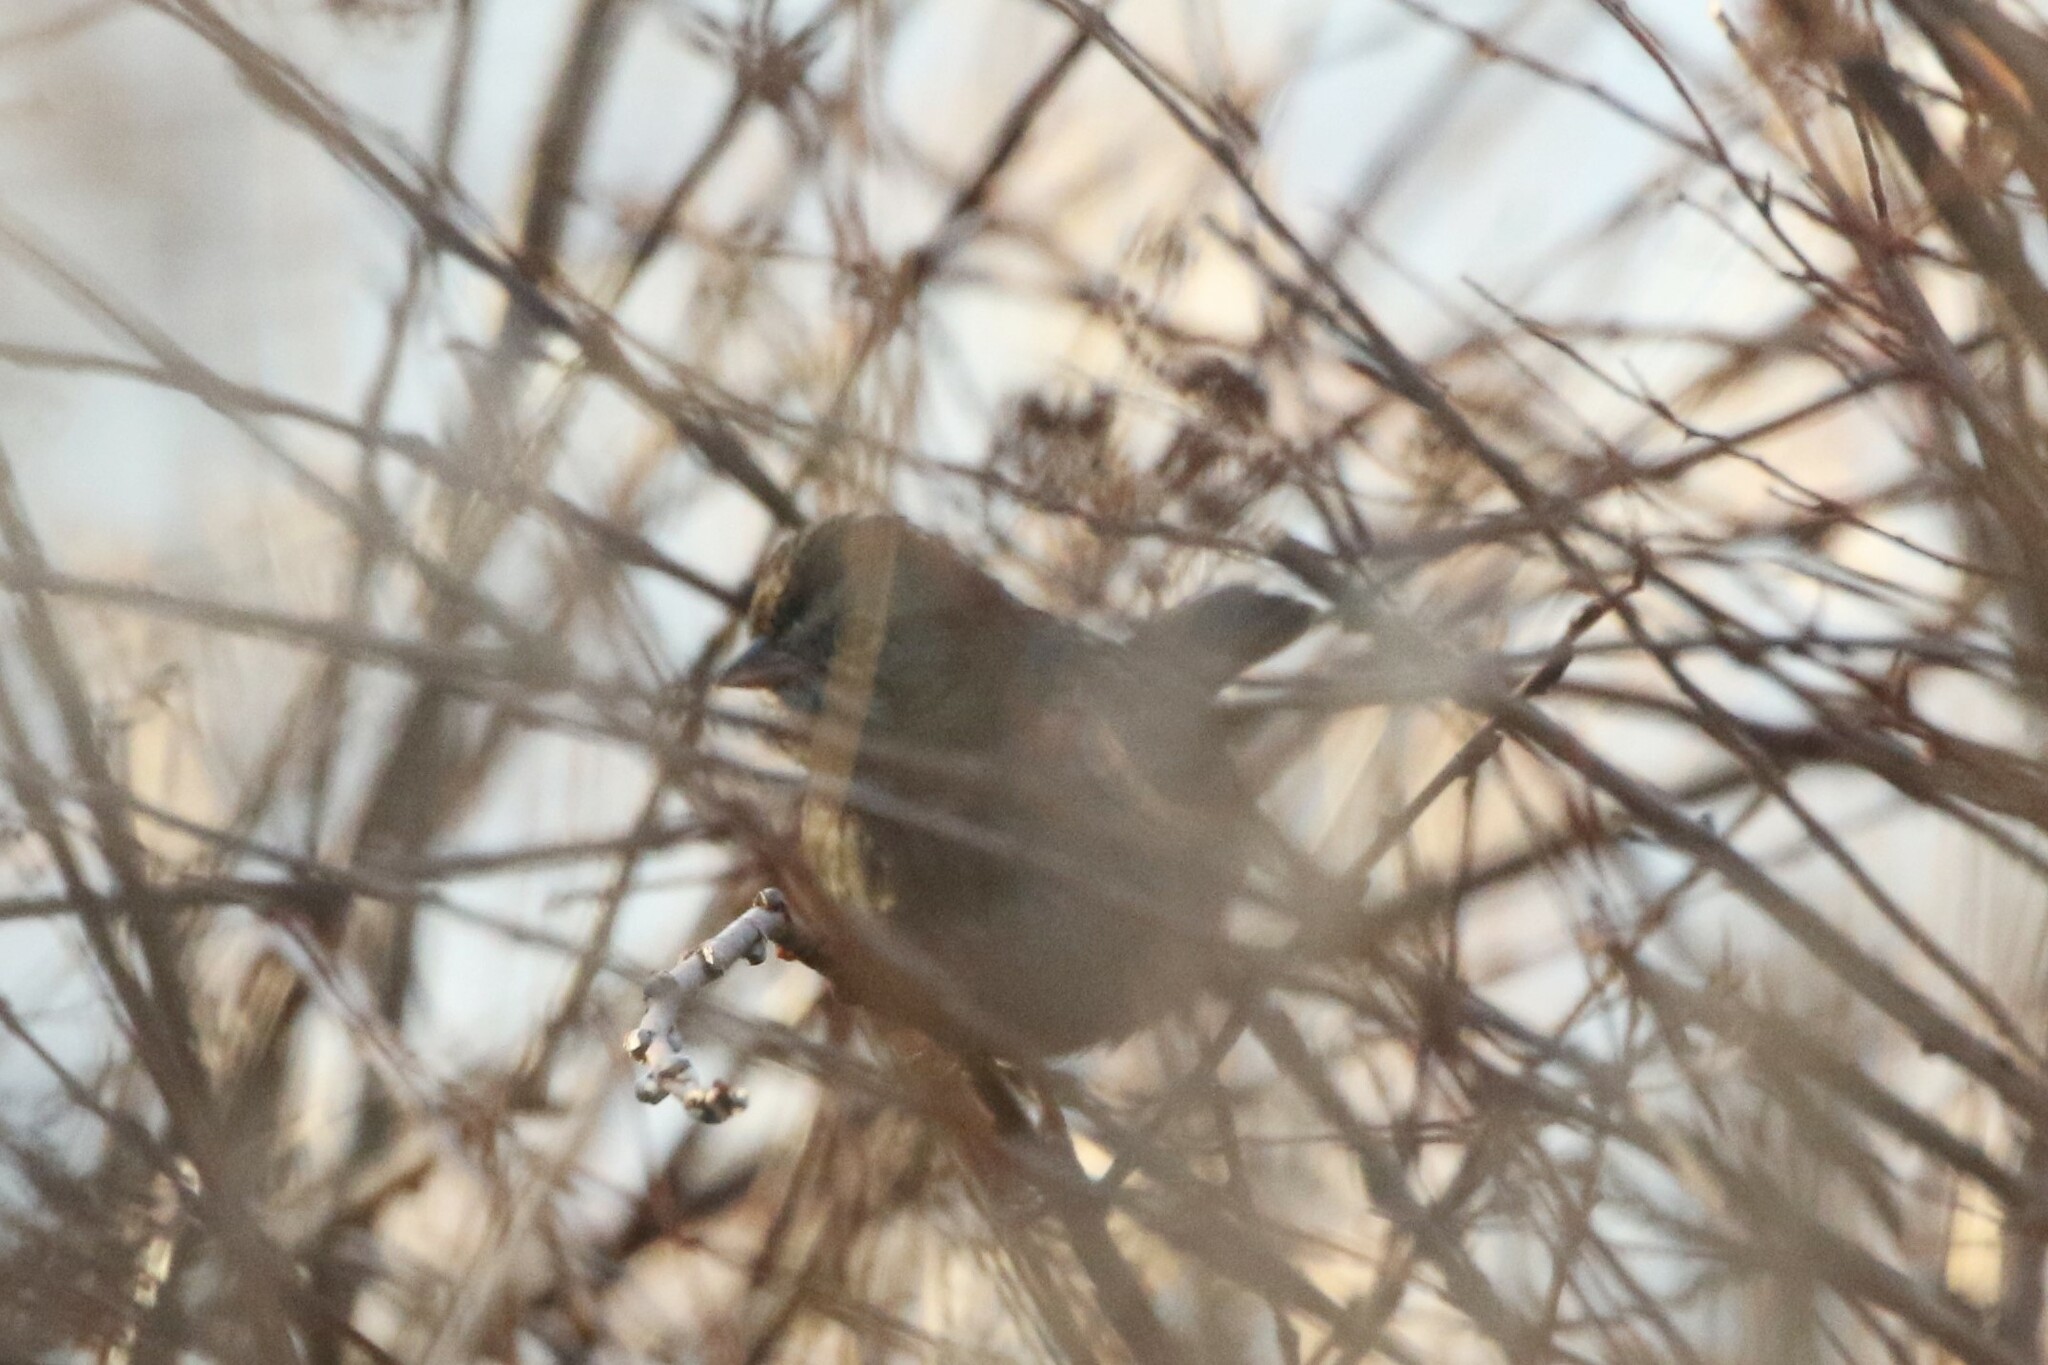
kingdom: Animalia
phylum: Chordata
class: Aves
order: Passeriformes
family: Passerellidae
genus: Melospiza
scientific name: Melospiza georgiana
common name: Swamp sparrow
